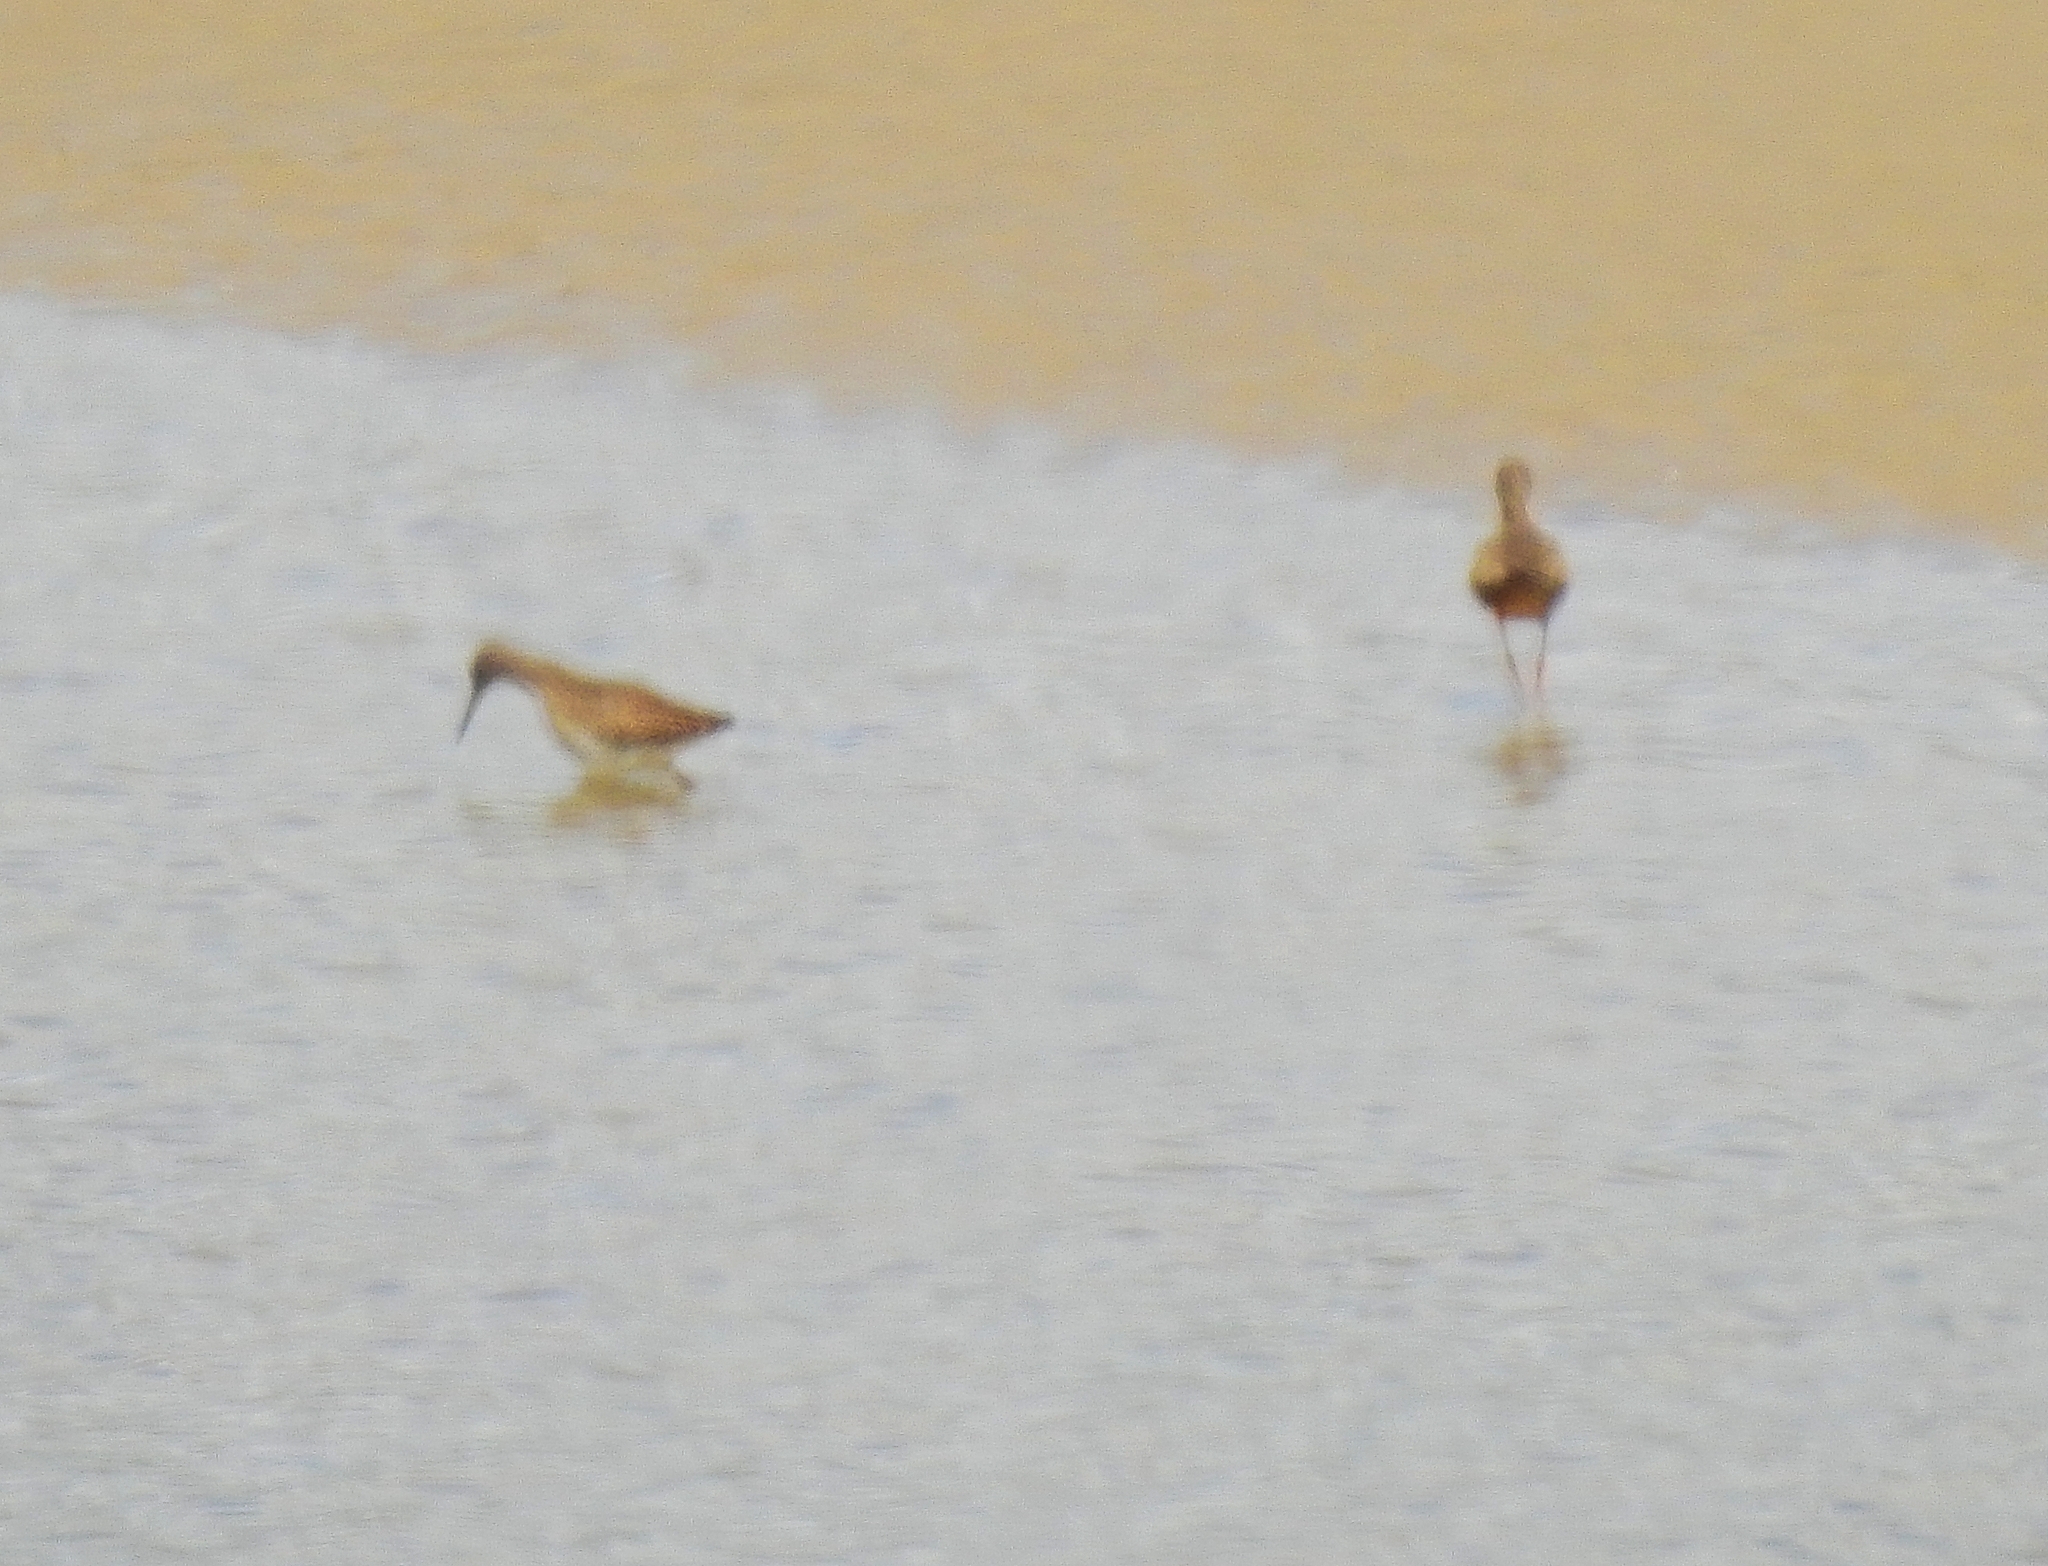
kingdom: Animalia
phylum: Chordata
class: Aves
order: Charadriiformes
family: Scolopacidae
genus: Tringa
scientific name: Tringa totanus
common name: Common redshank
